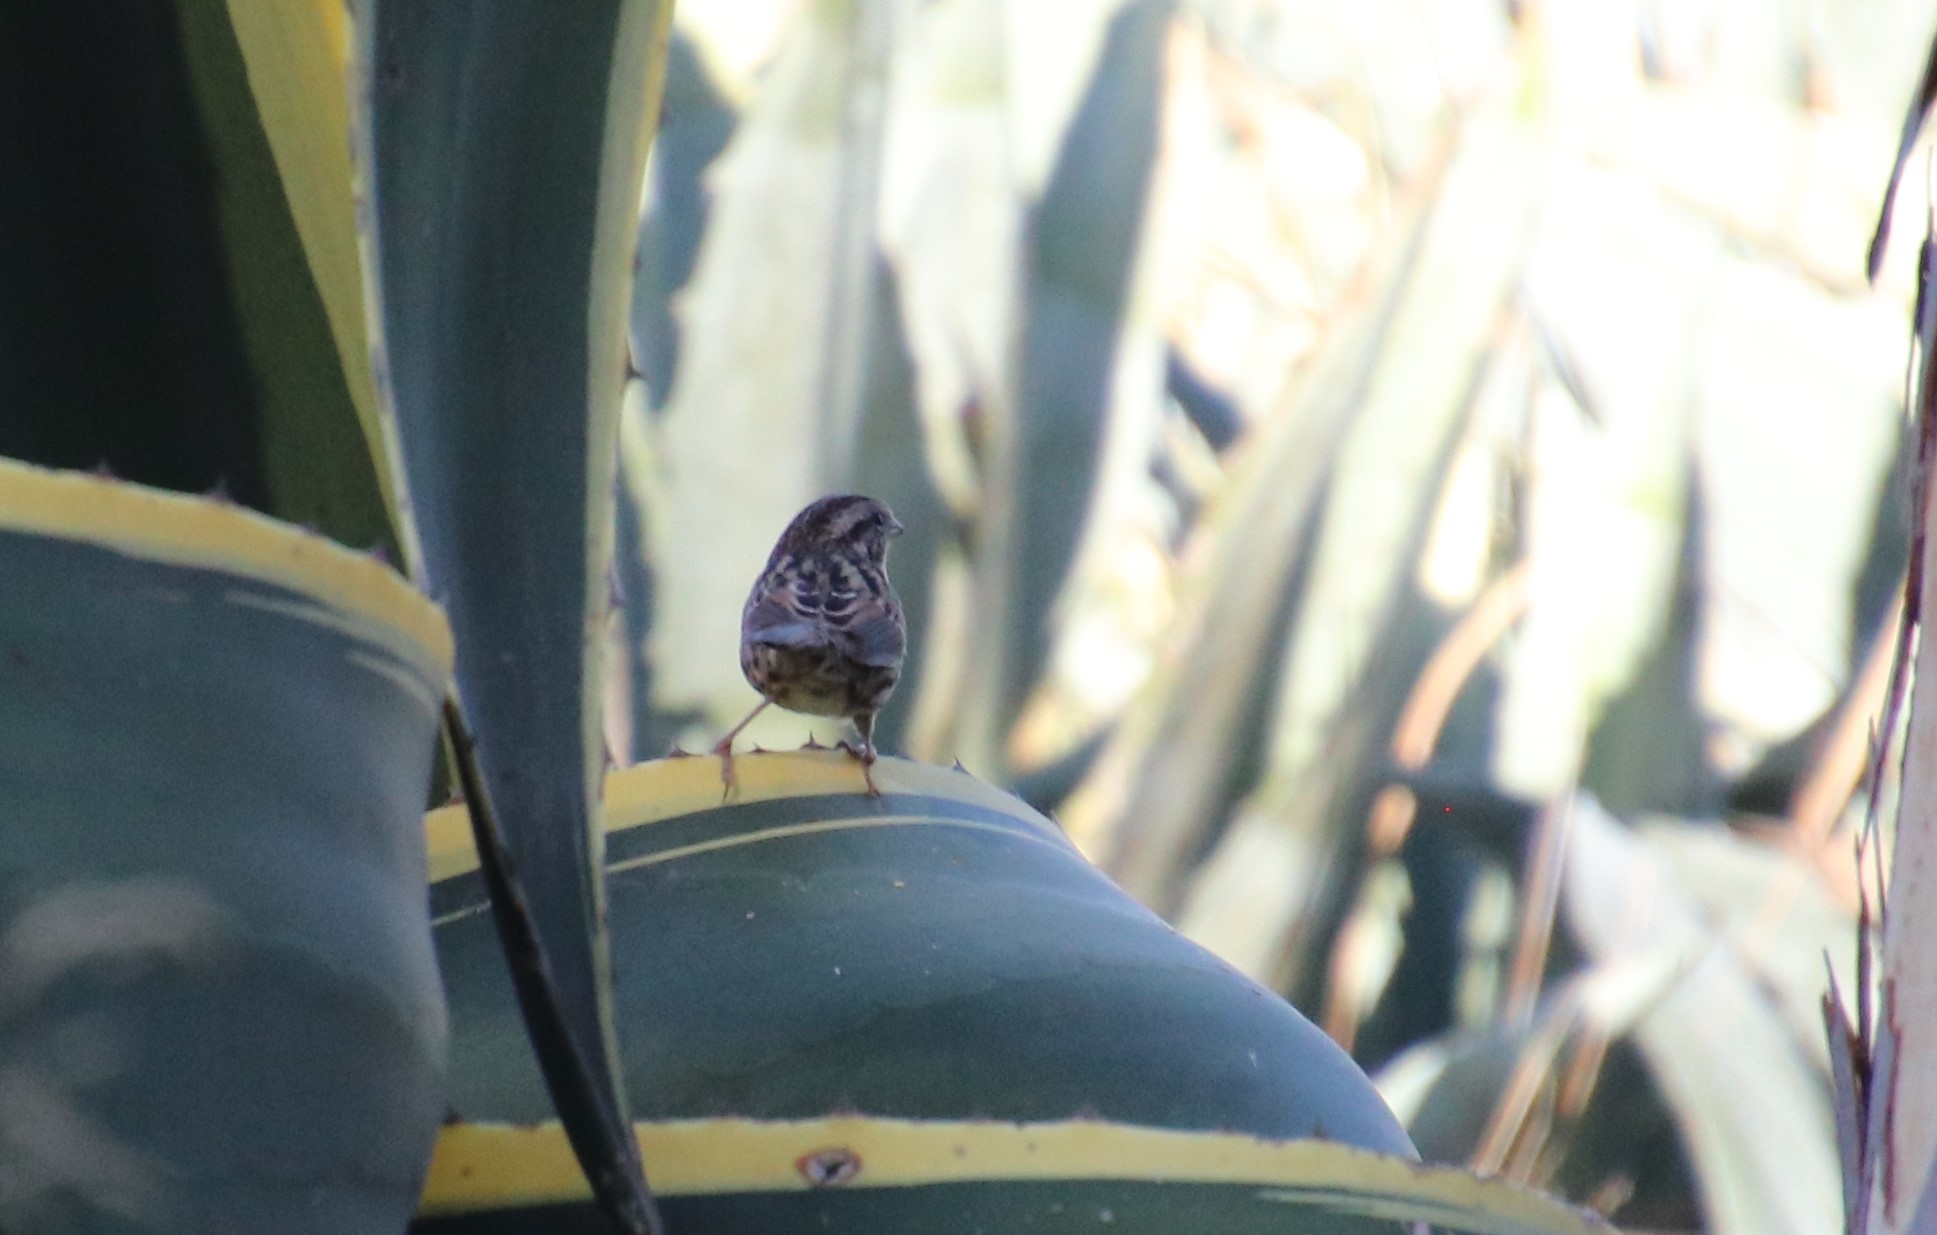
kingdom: Animalia
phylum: Chordata
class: Aves
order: Passeriformes
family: Passerellidae
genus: Melospiza
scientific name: Melospiza melodia
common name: Song sparrow
